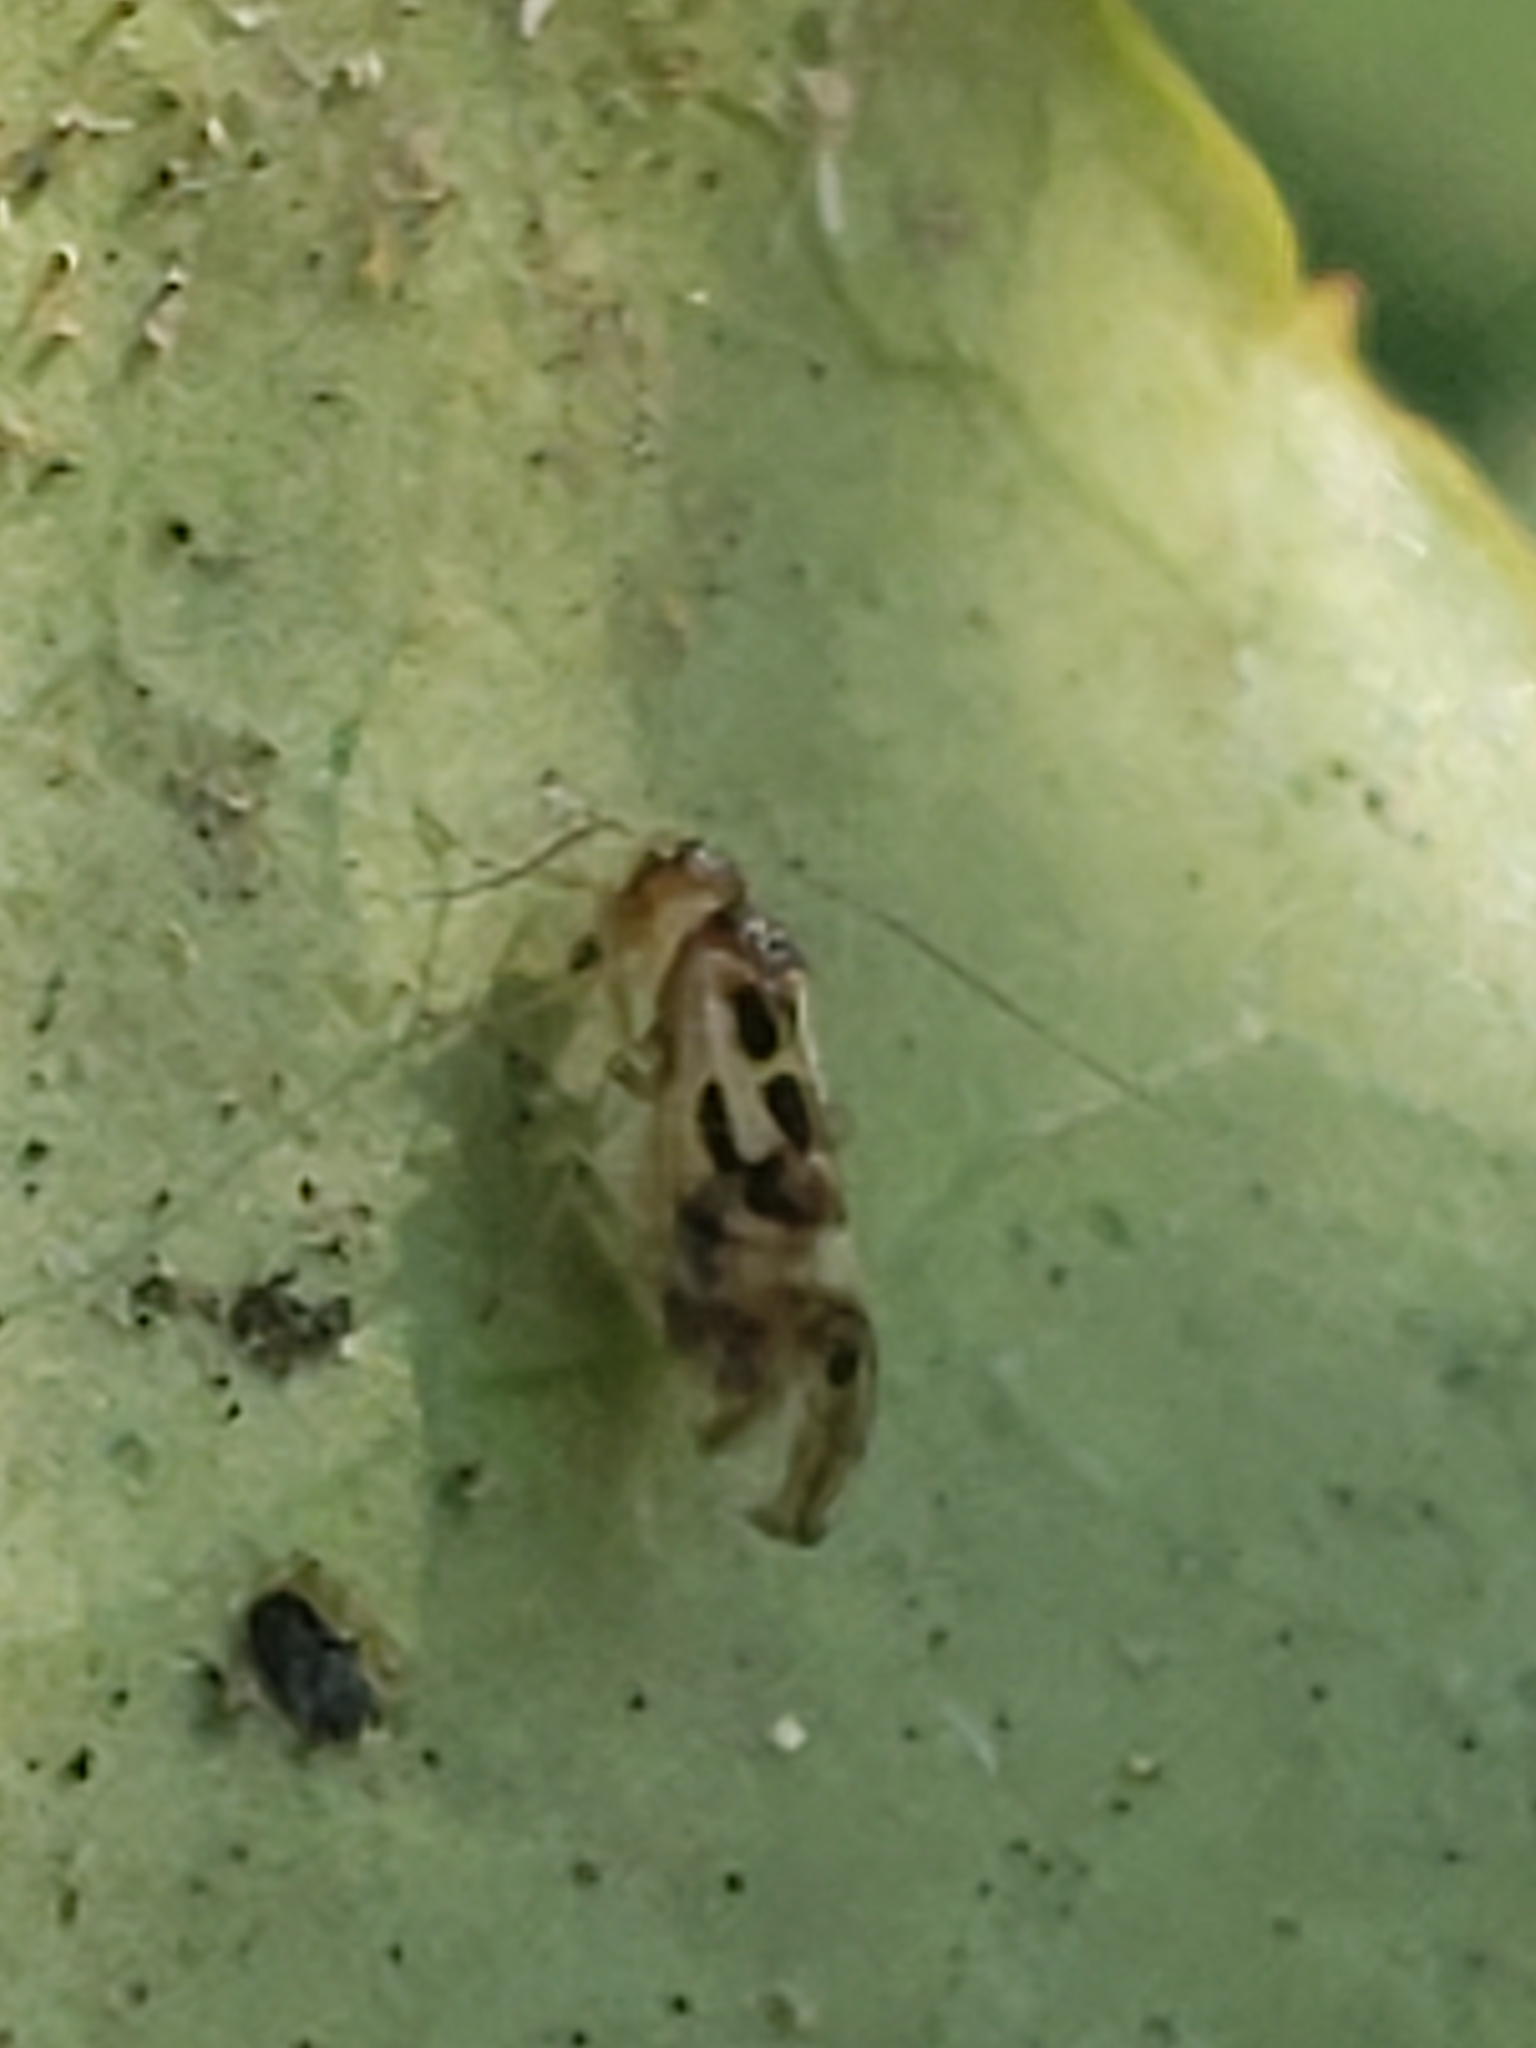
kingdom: Animalia
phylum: Arthropoda
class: Insecta
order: Psocodea
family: Stenopsocidae
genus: Graphopsocus
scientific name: Graphopsocus cruciatus
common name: Lizard bark louse
